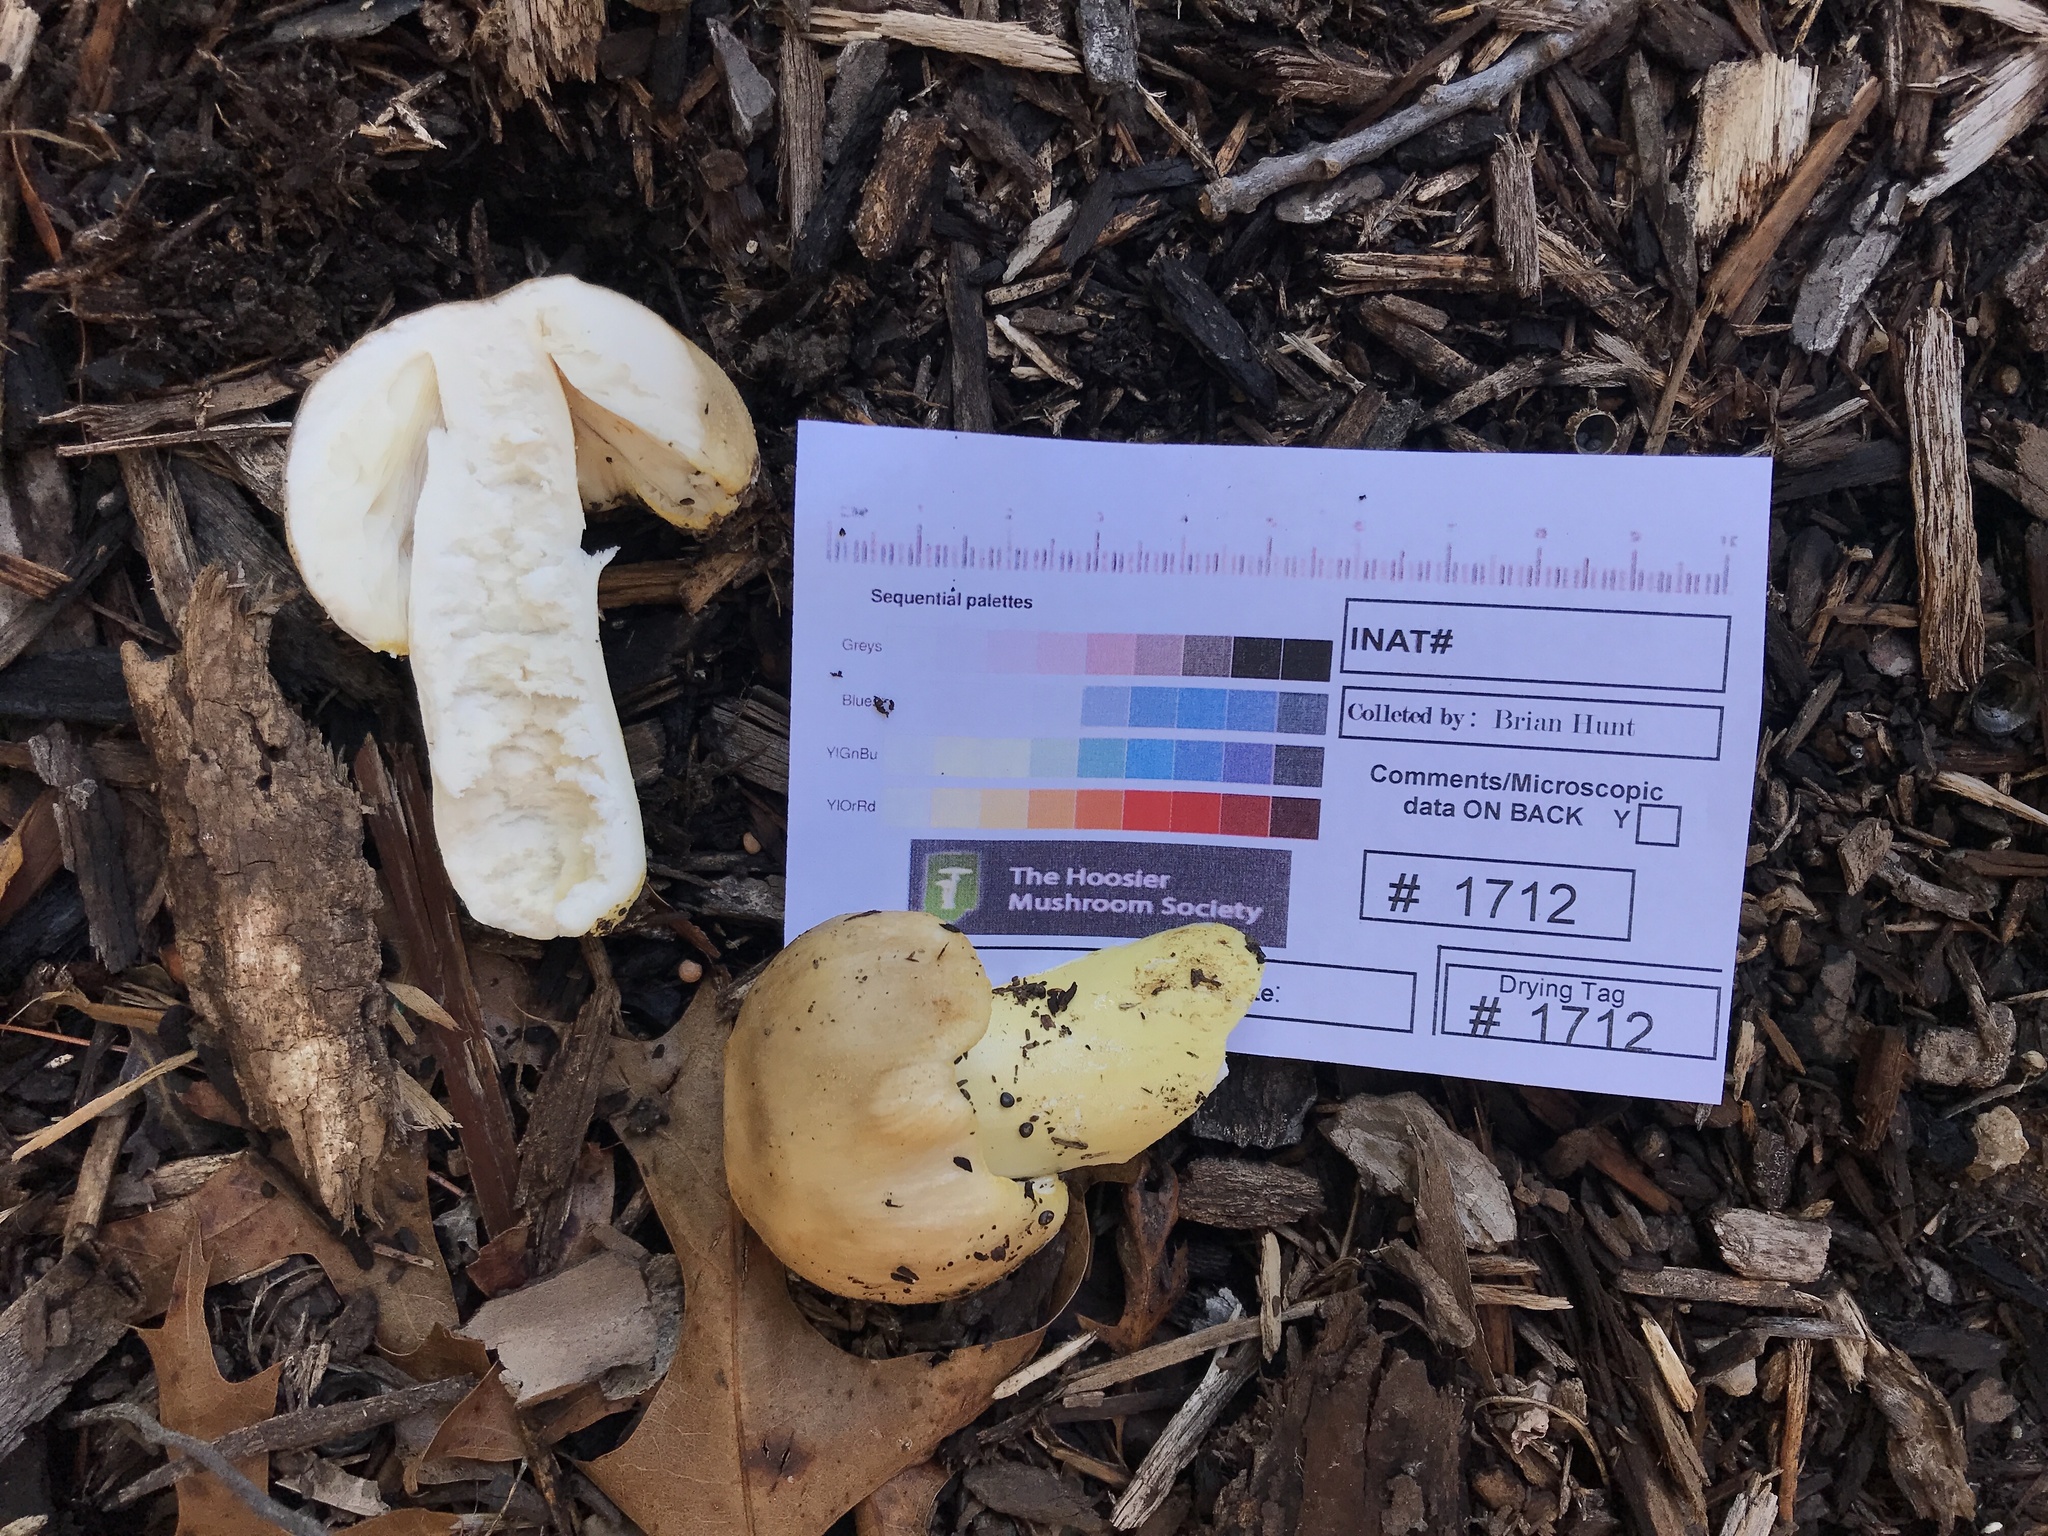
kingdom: Fungi
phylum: Basidiomycota
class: Agaricomycetes
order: Russulales
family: Russulaceae
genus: Russula
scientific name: Russula pulverulenta
